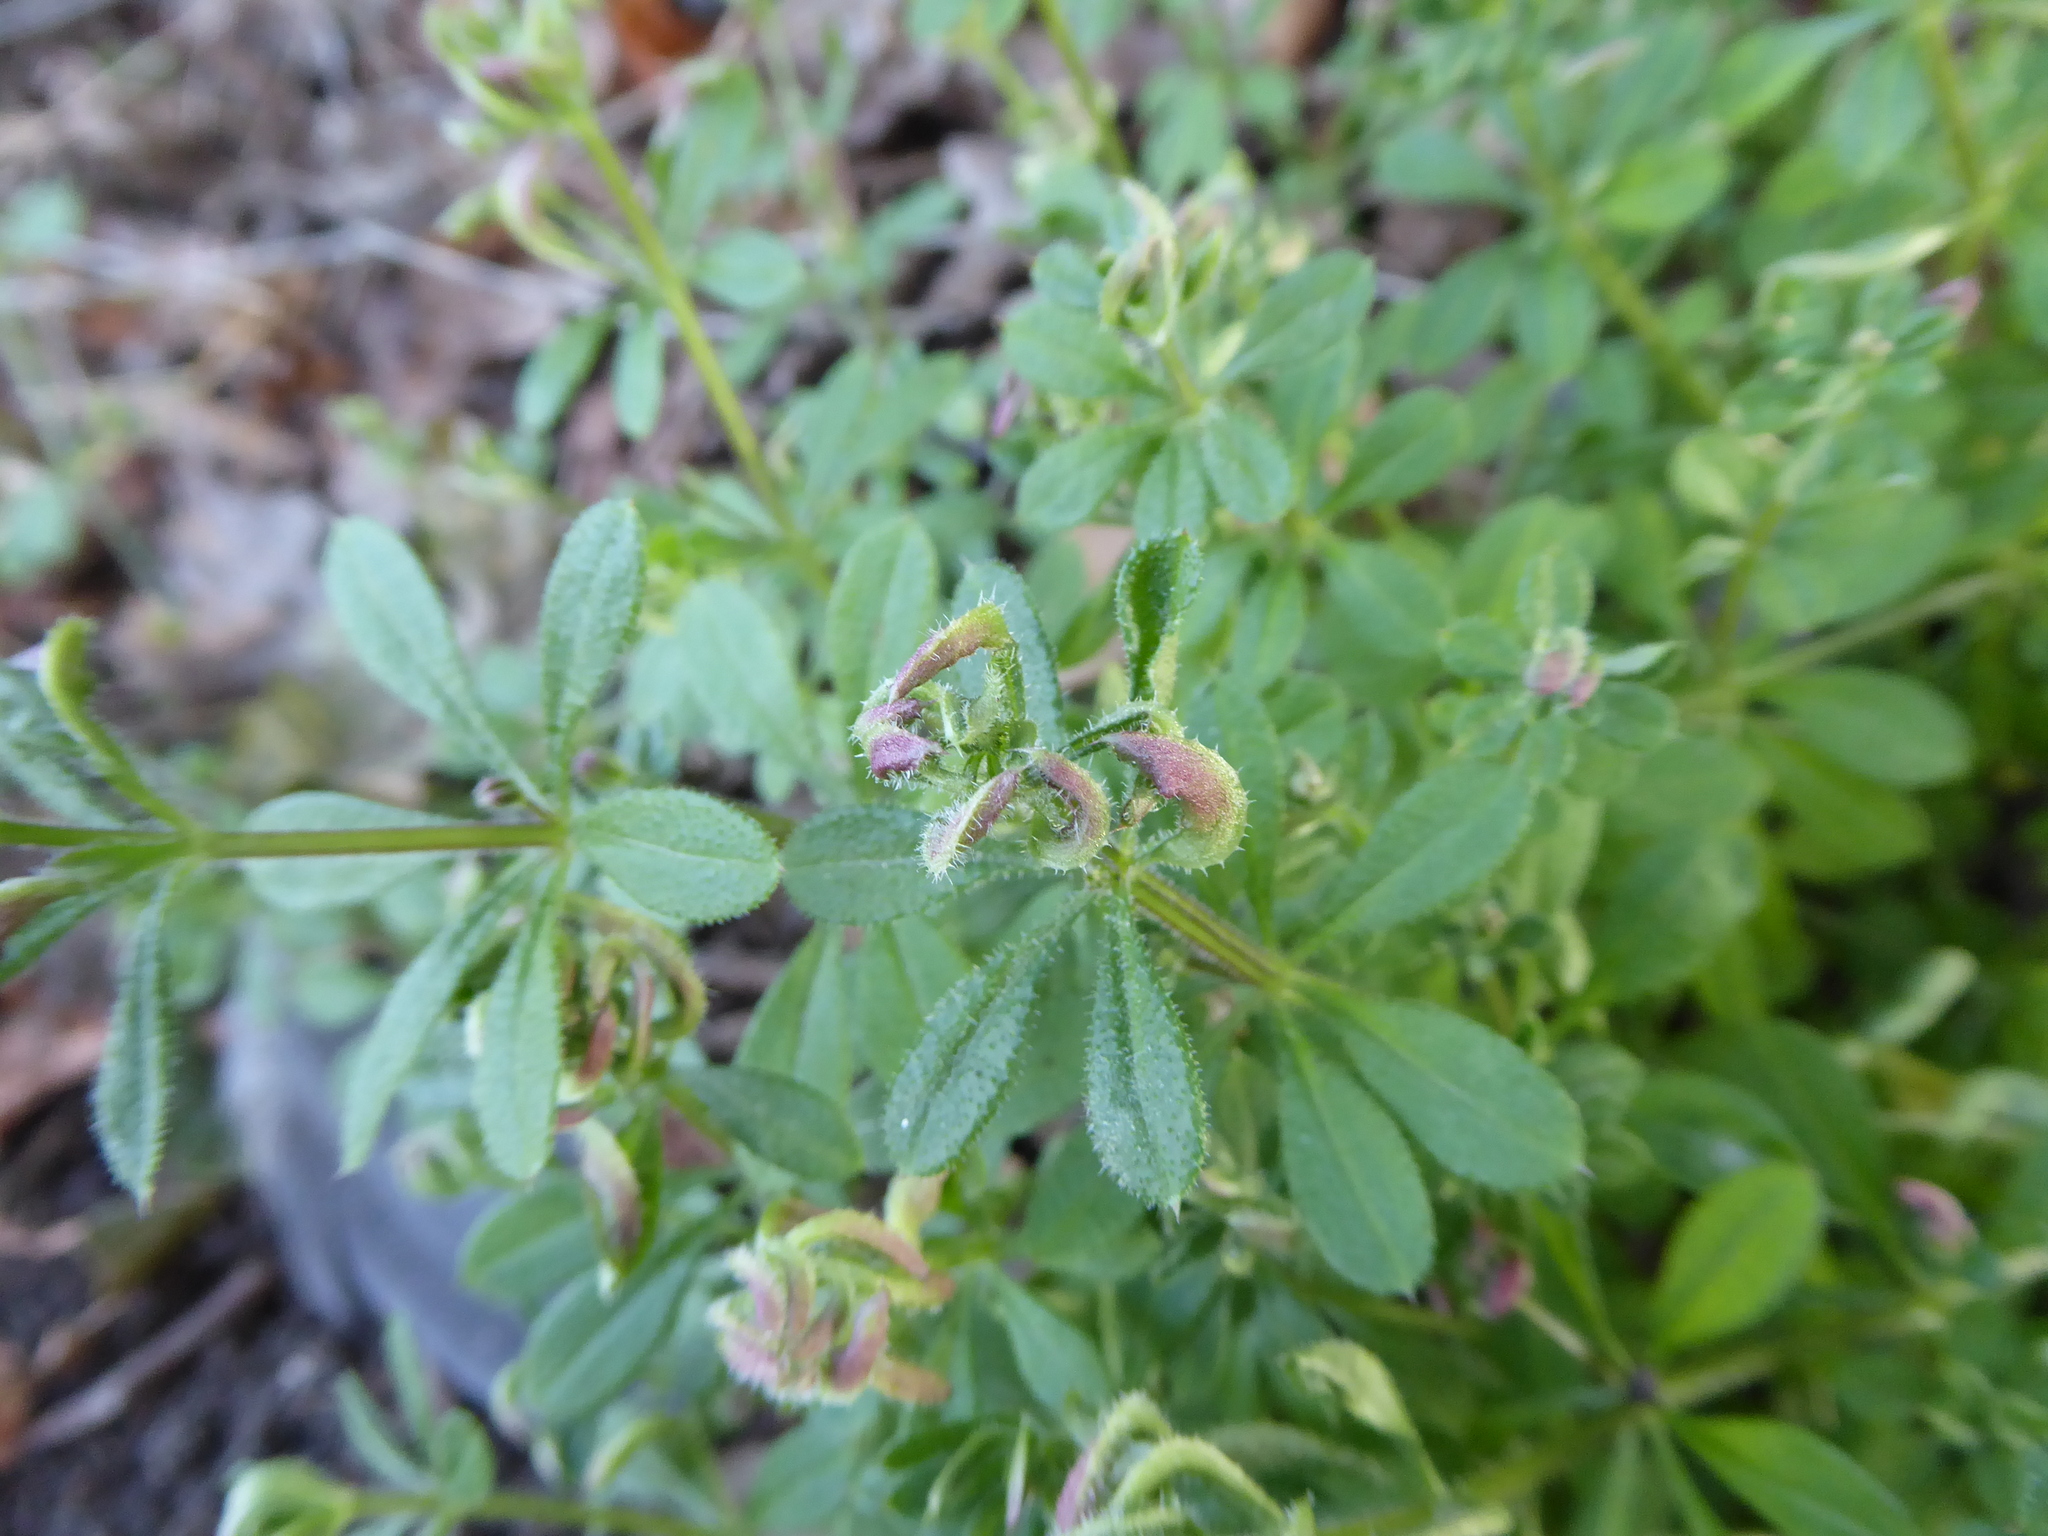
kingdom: Animalia
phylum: Arthropoda
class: Arachnida
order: Trombidiformes
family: Eriophyidae
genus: Cecidophyes
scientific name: Cecidophyes rouhollahi
